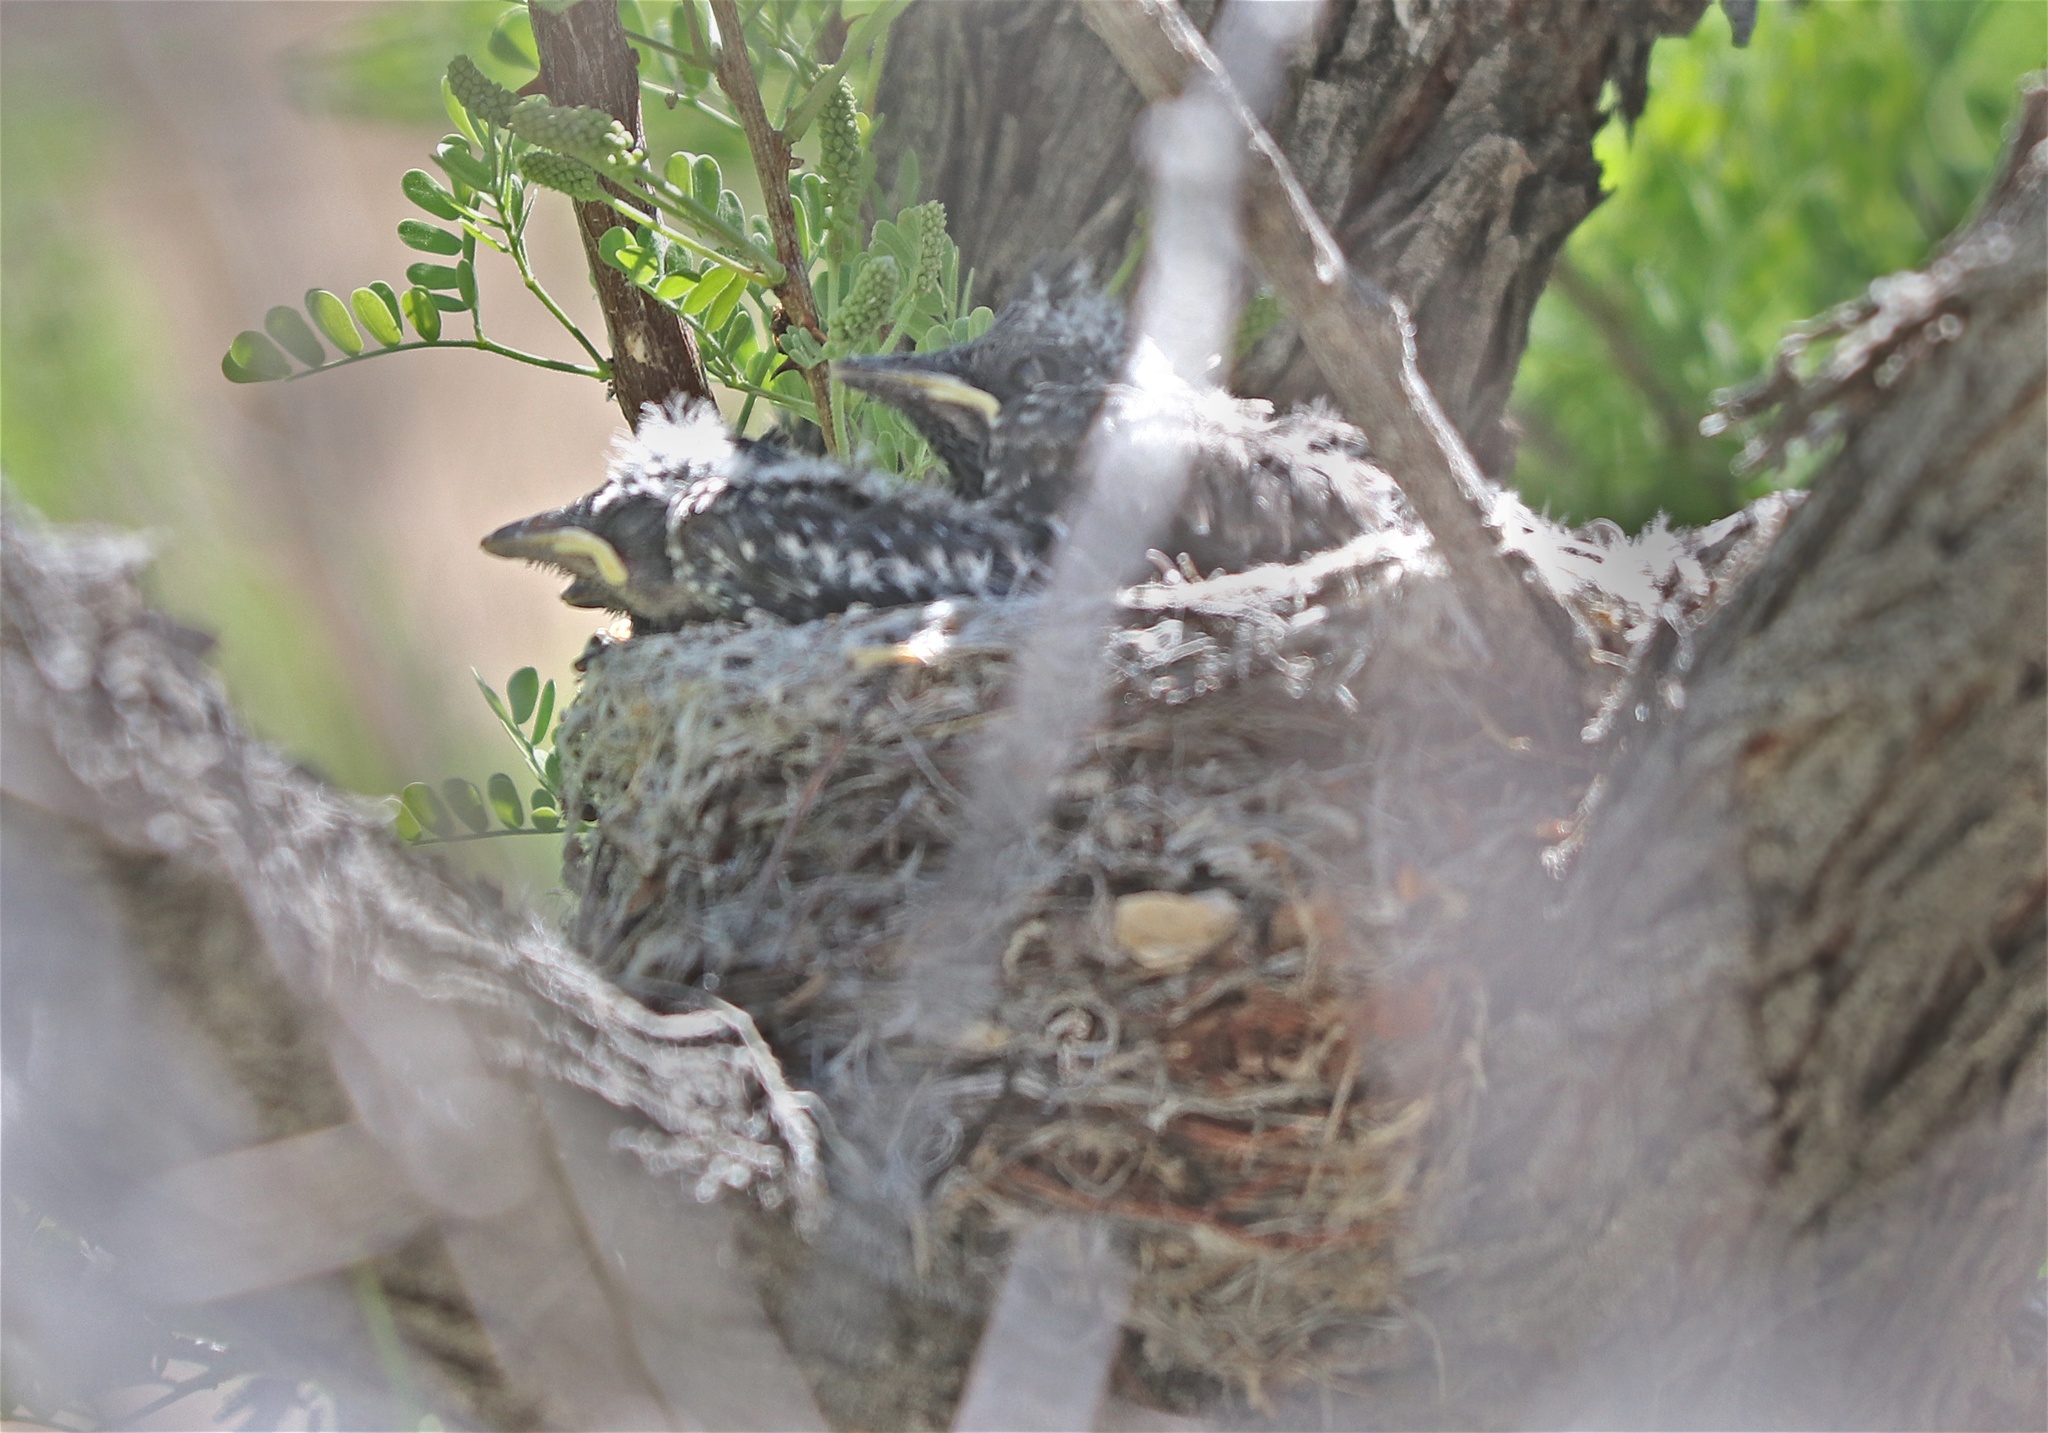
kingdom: Animalia
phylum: Chordata
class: Aves
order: Passeriformes
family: Ptilogonatidae
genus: Phainopepla
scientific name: Phainopepla nitens
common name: Phainopepla
